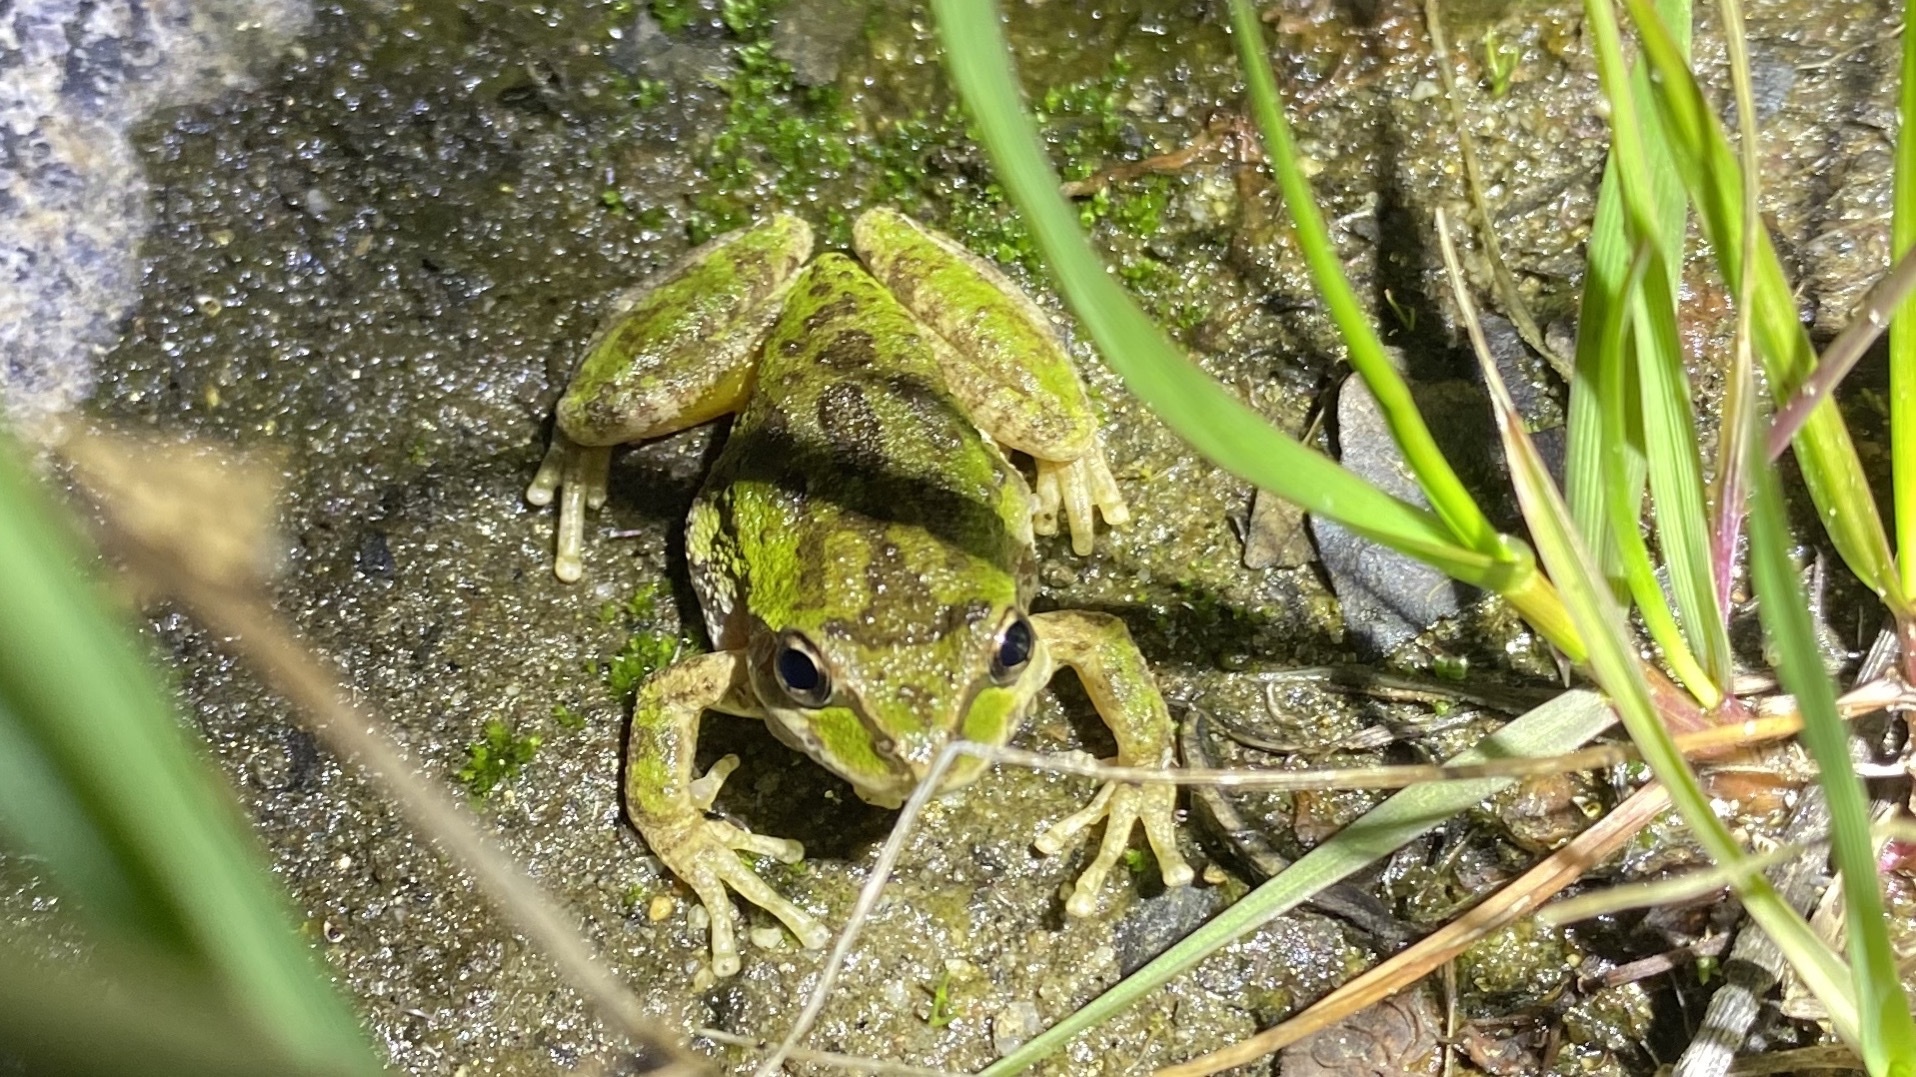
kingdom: Animalia
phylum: Chordata
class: Amphibia
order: Anura
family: Hylidae
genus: Pseudacris
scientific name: Pseudacris regilla
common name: Pacific chorus frog
